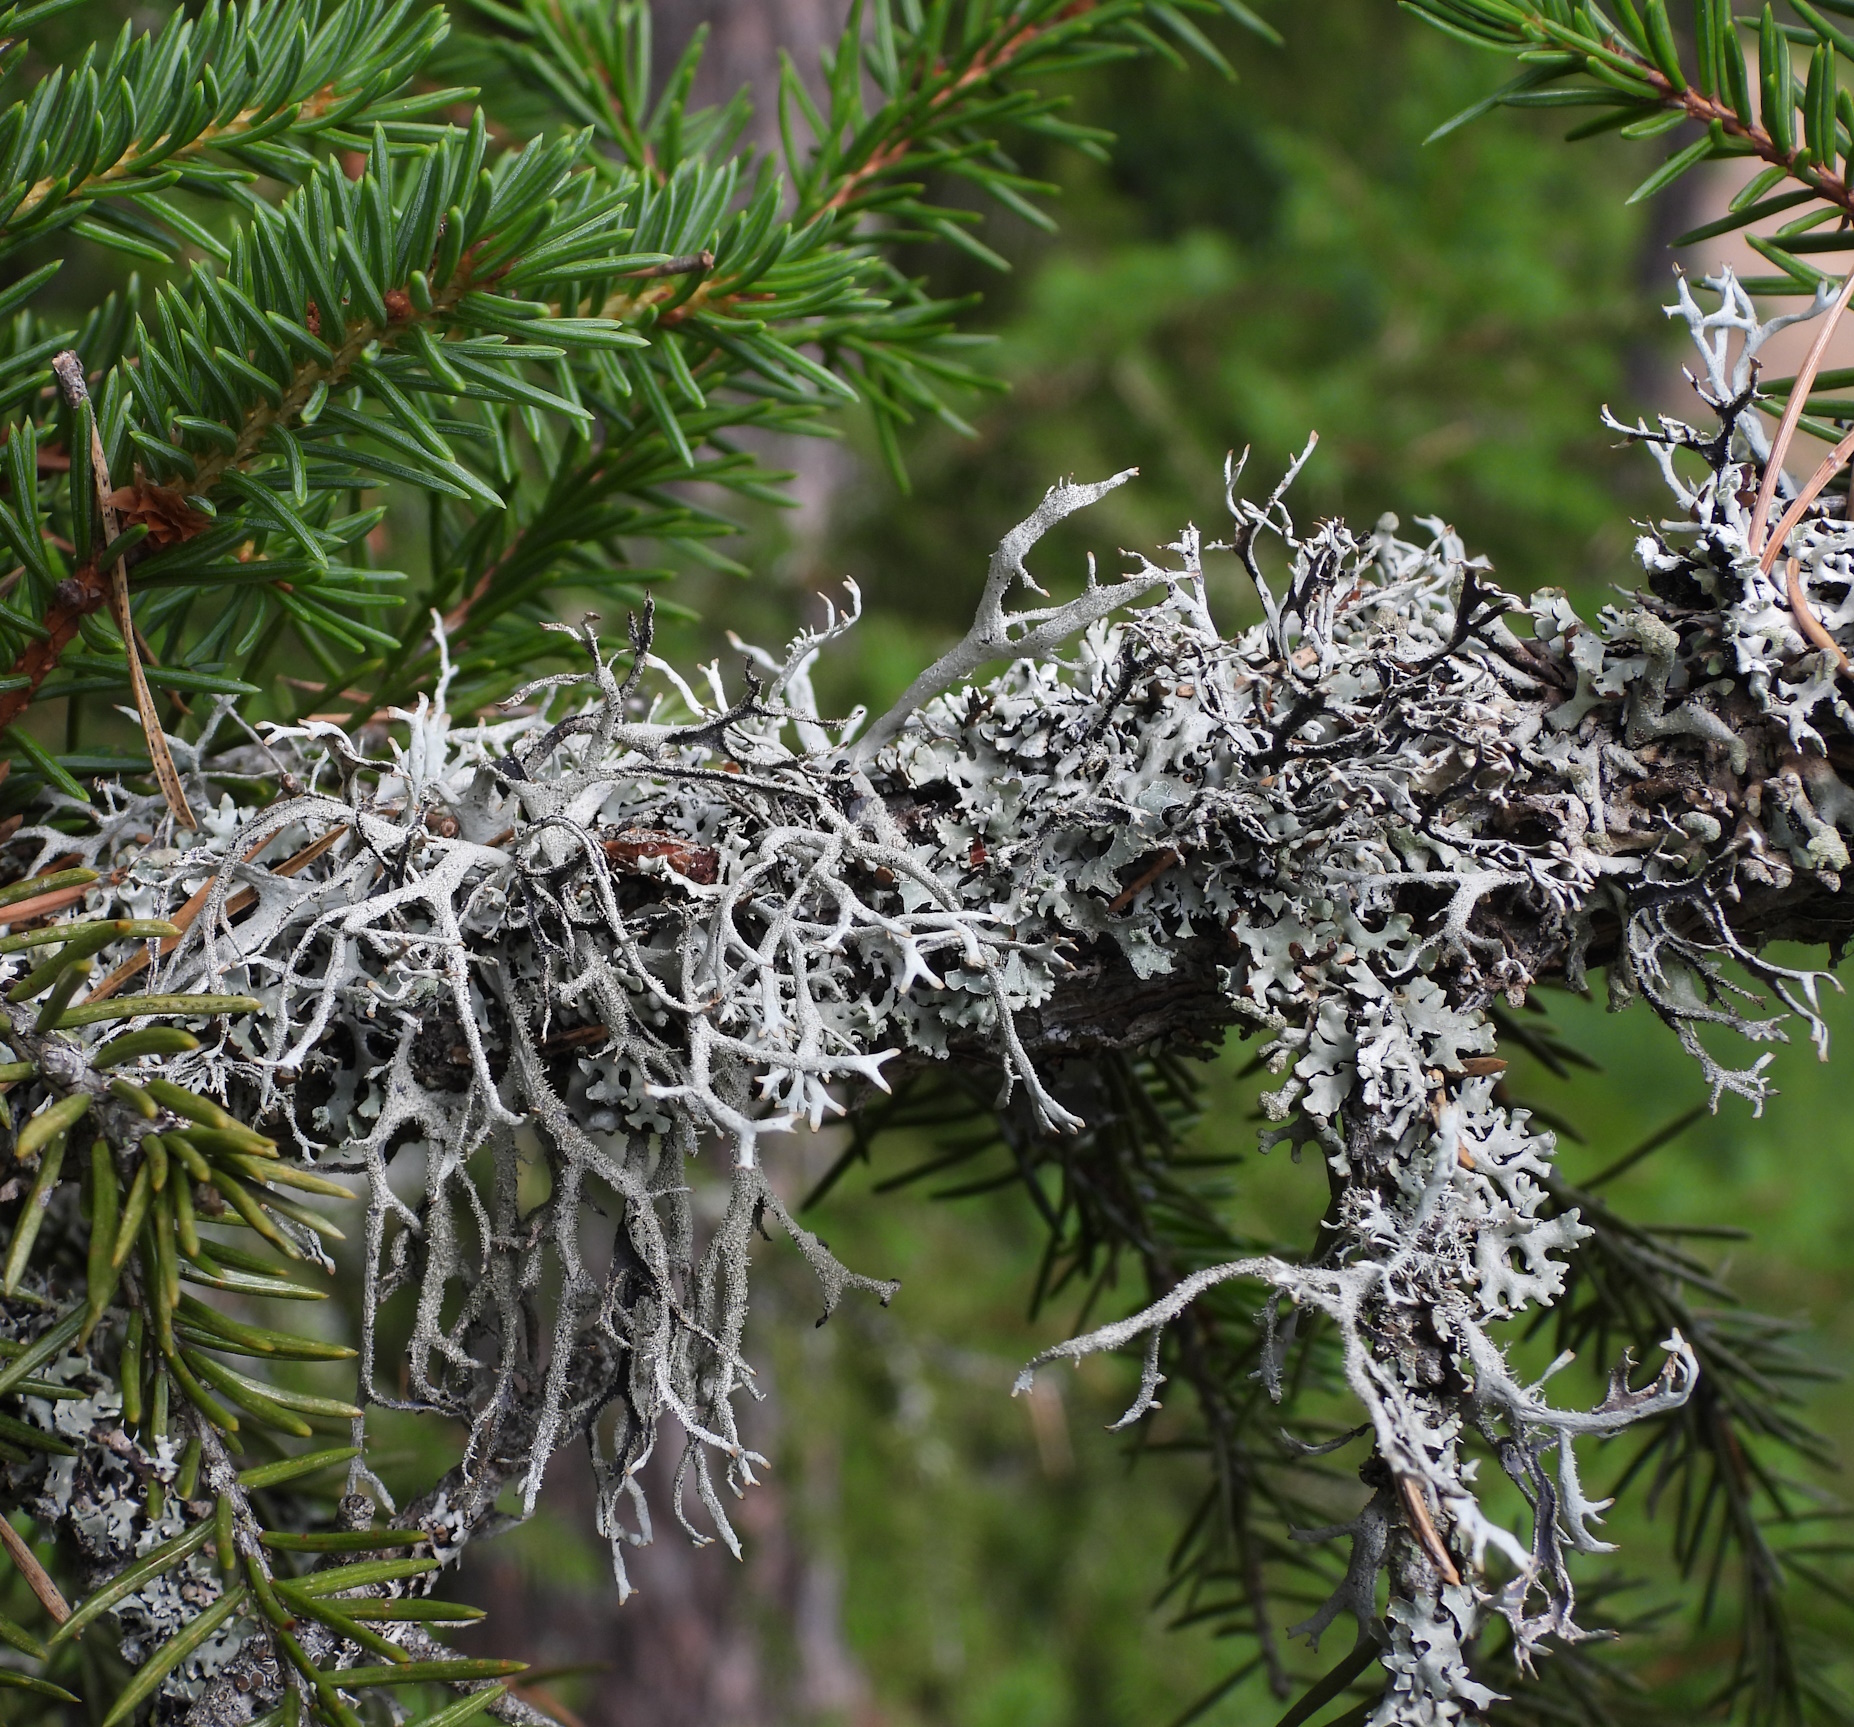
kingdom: Fungi
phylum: Ascomycota
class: Lecanoromycetes
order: Lecanorales
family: Parmeliaceae
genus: Pseudevernia
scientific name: Pseudevernia furfuracea
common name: Tree moss
